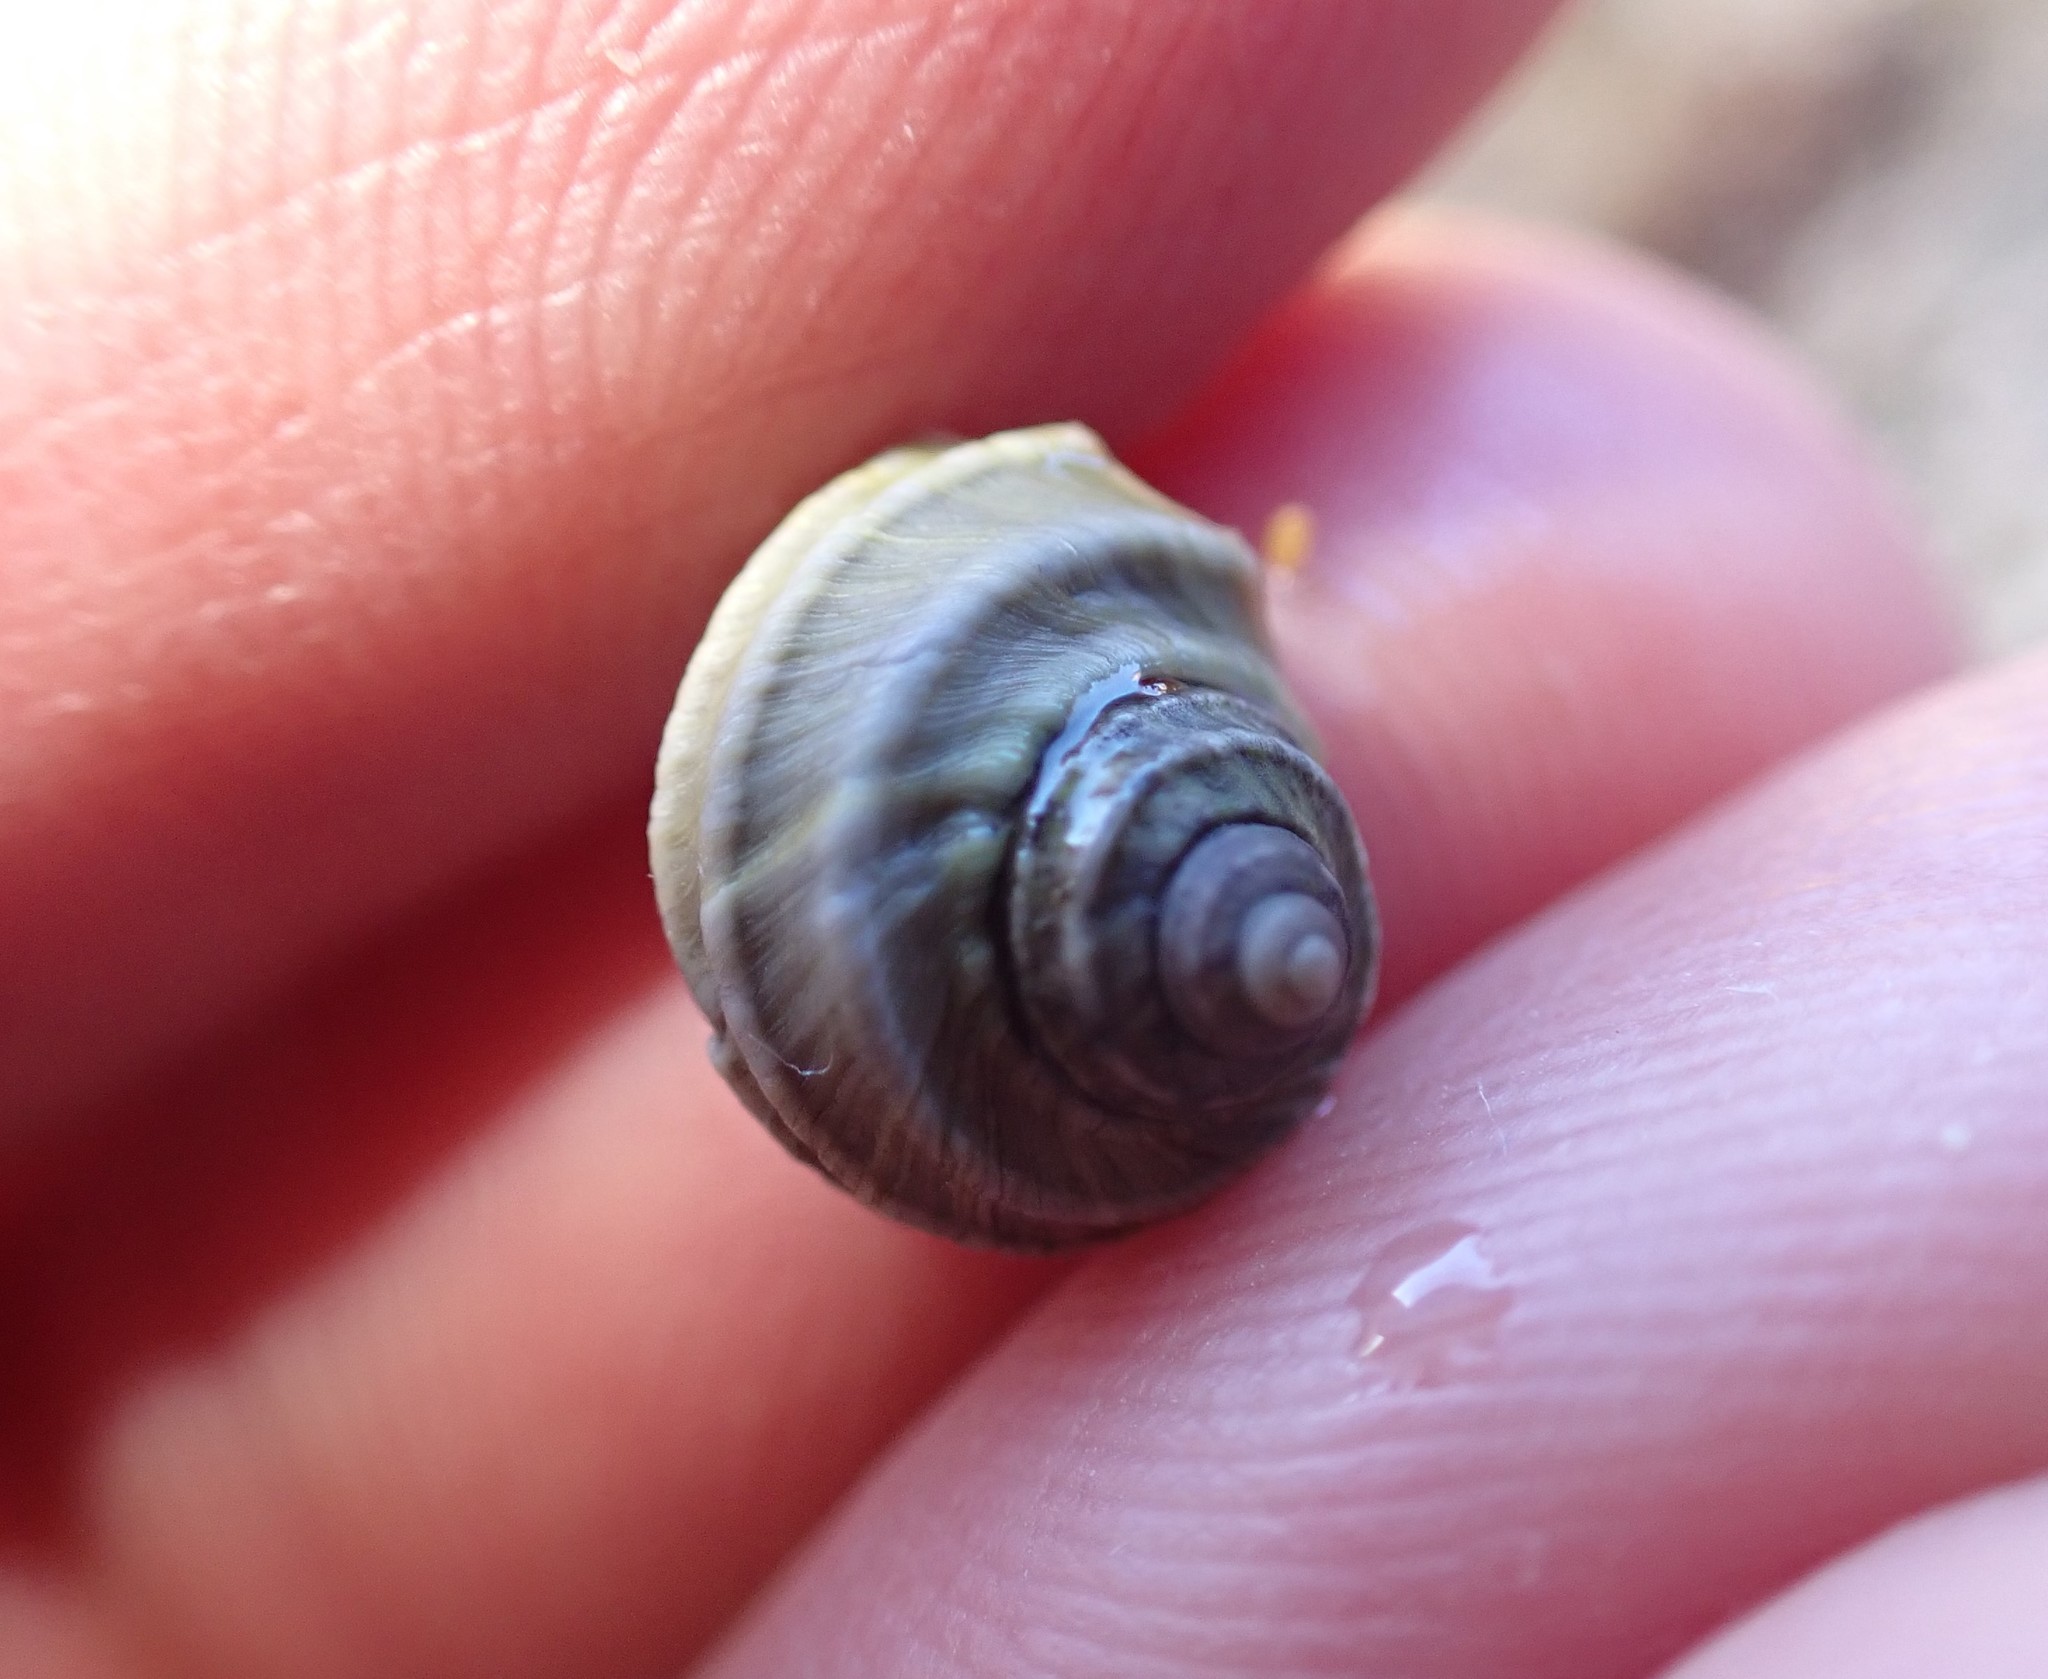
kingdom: Animalia
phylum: Mollusca
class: Gastropoda
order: Trochida
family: Trochidae
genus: Austrocochlea
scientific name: Austrocochlea constricta
